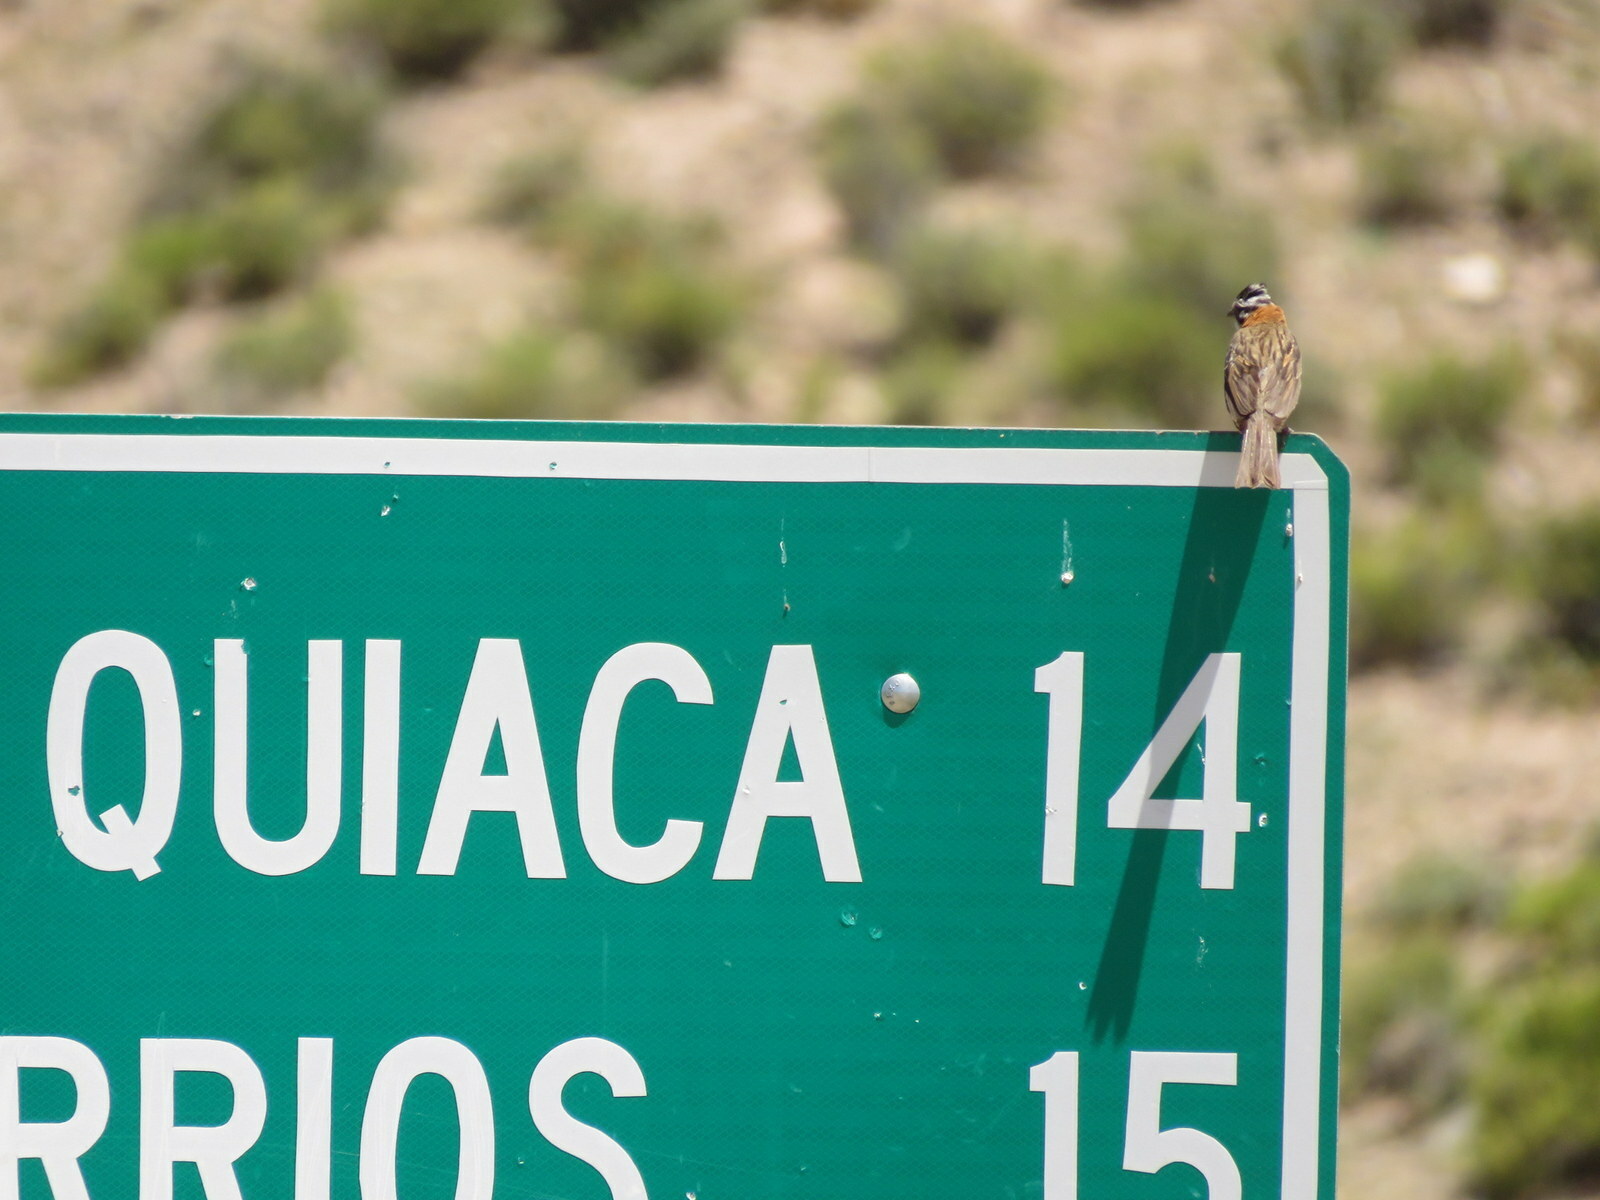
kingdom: Animalia
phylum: Chordata
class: Aves
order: Passeriformes
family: Passerellidae
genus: Zonotrichia
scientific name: Zonotrichia capensis
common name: Rufous-collared sparrow
